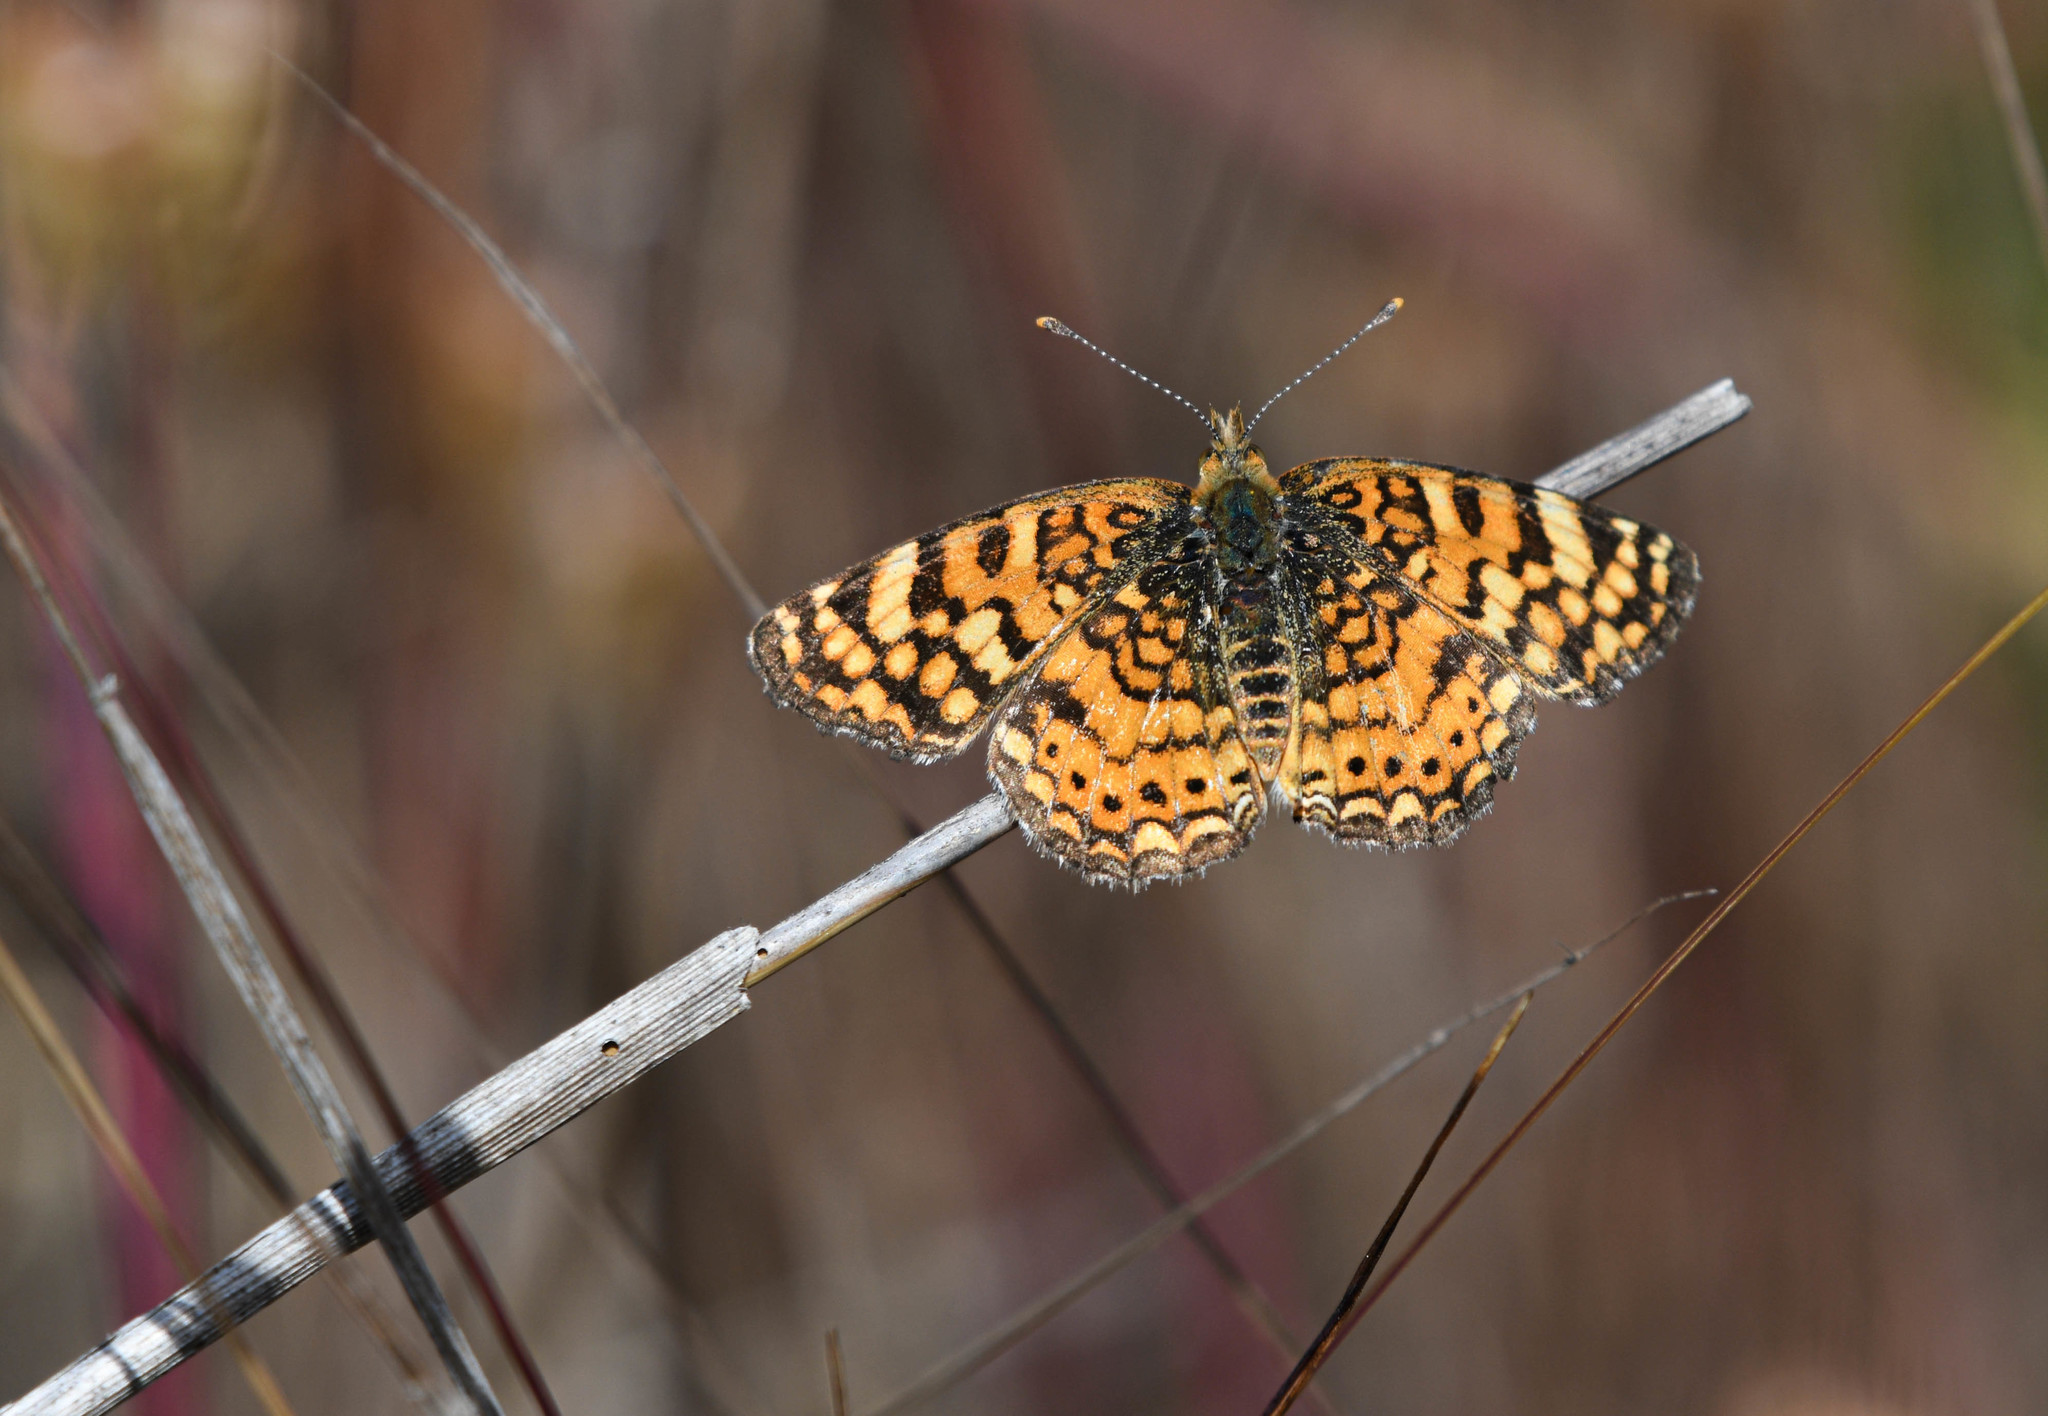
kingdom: Animalia
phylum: Arthropoda
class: Insecta
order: Lepidoptera
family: Nymphalidae
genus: Eresia
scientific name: Eresia aveyrona
